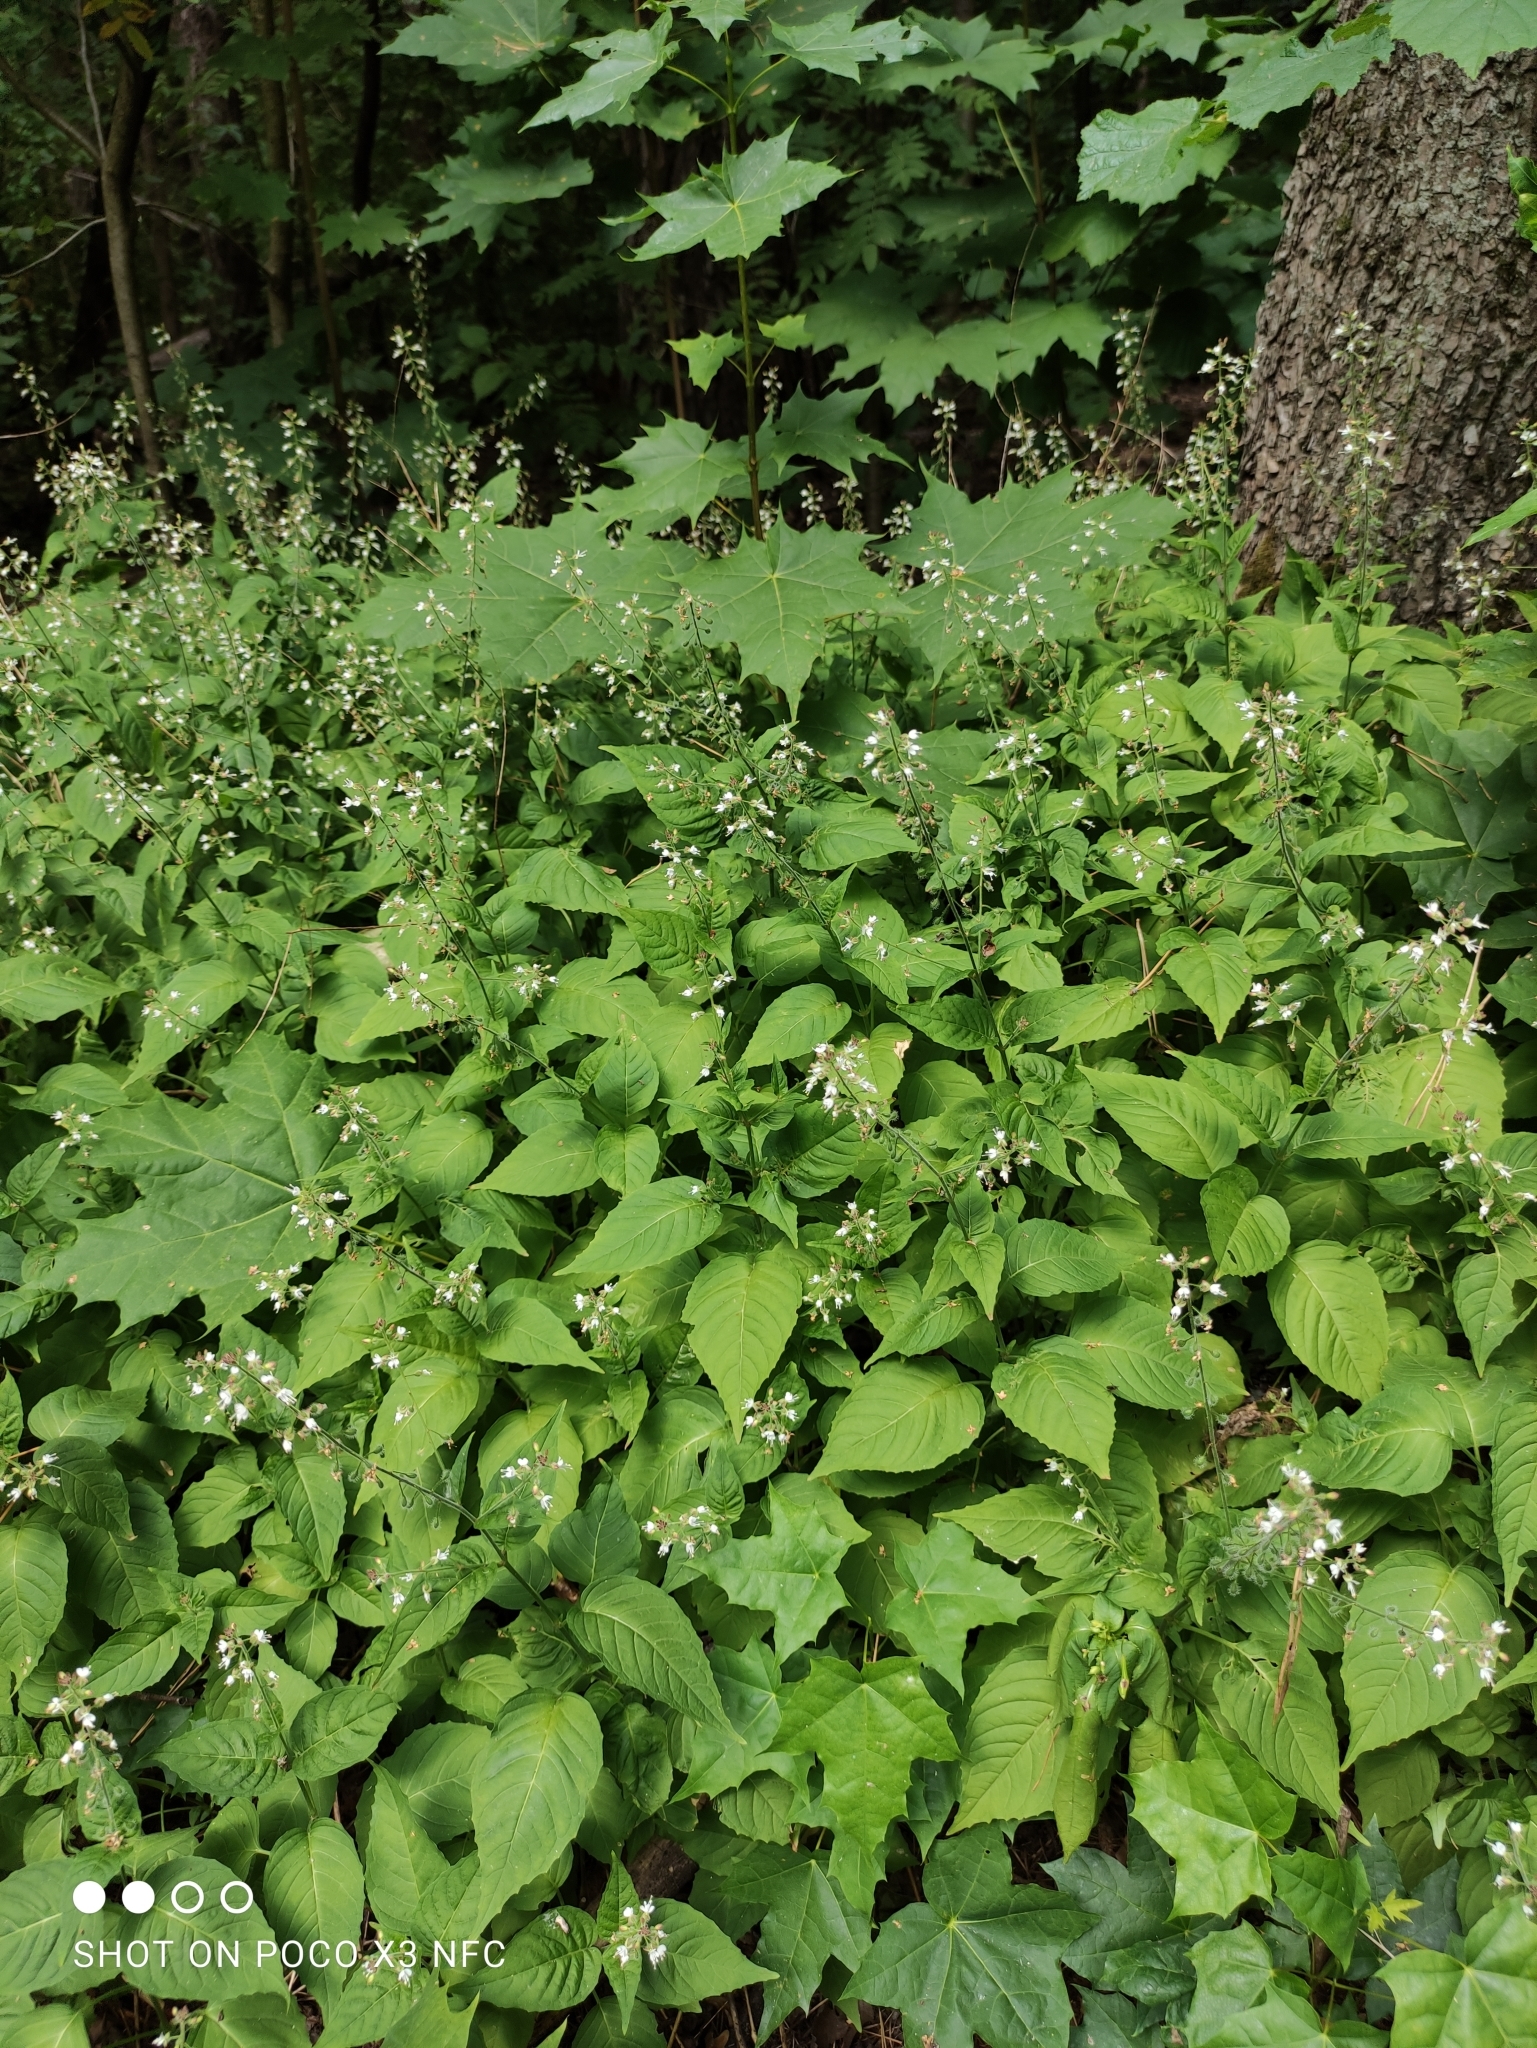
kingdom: Plantae
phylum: Tracheophyta
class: Magnoliopsida
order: Myrtales
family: Onagraceae
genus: Circaea
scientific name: Circaea lutetiana
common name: Enchanter's-nightshade
